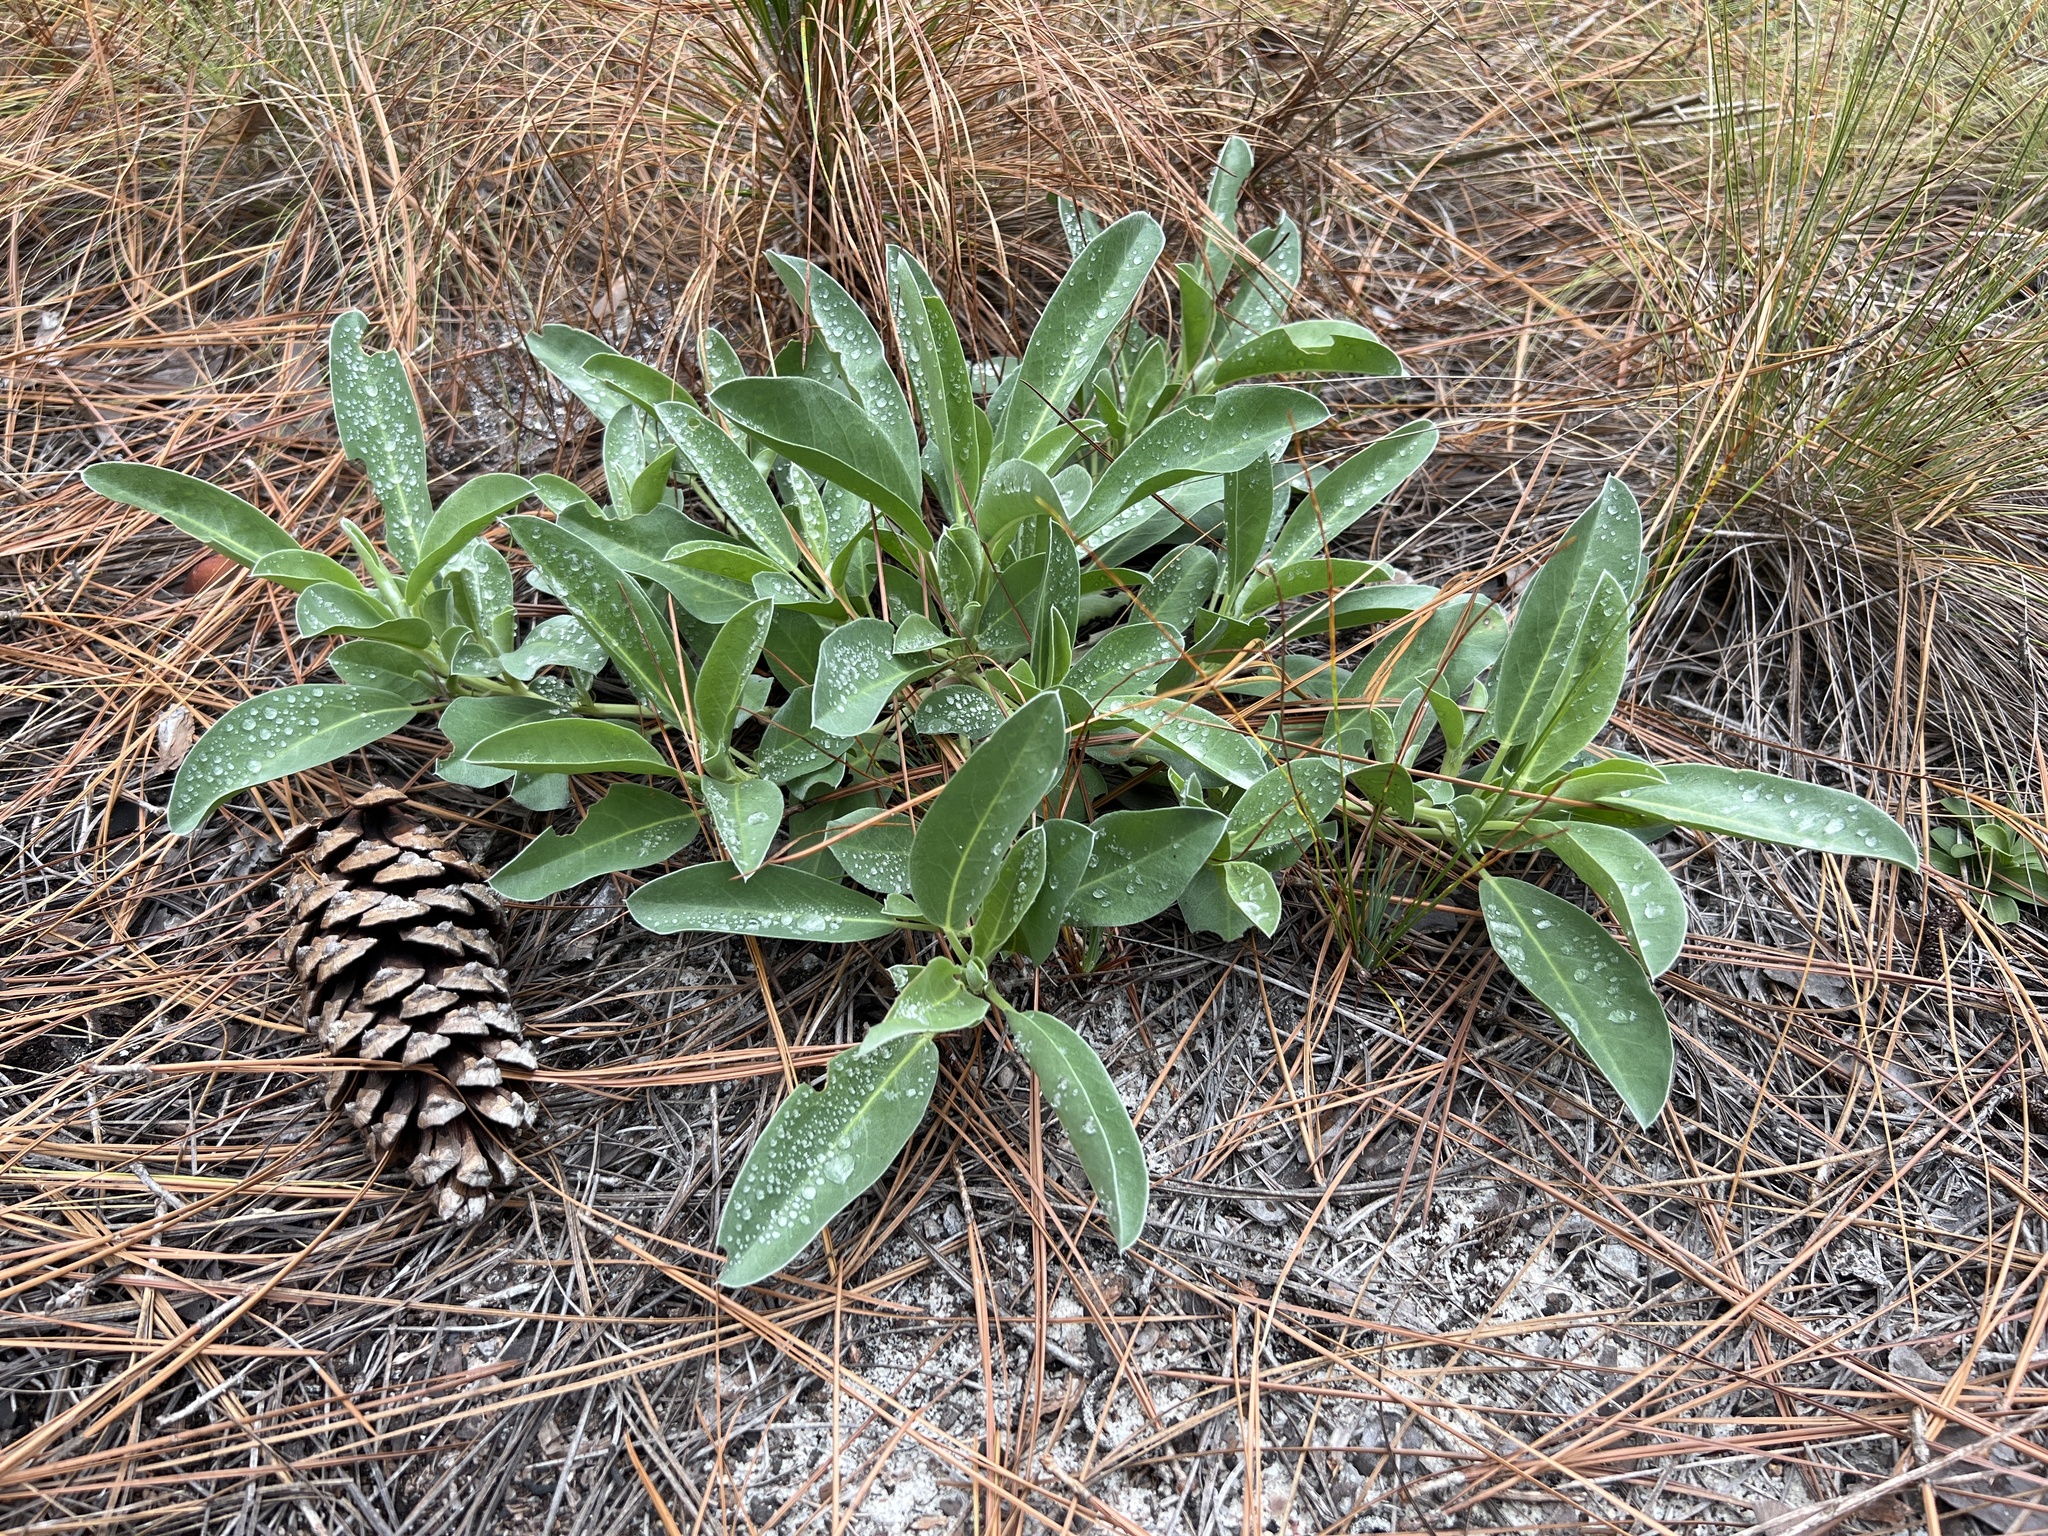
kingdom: Plantae
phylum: Tracheophyta
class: Magnoliopsida
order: Fabales
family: Fabaceae
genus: Lupinus
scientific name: Lupinus diffusus
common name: Oak ridge lupine
